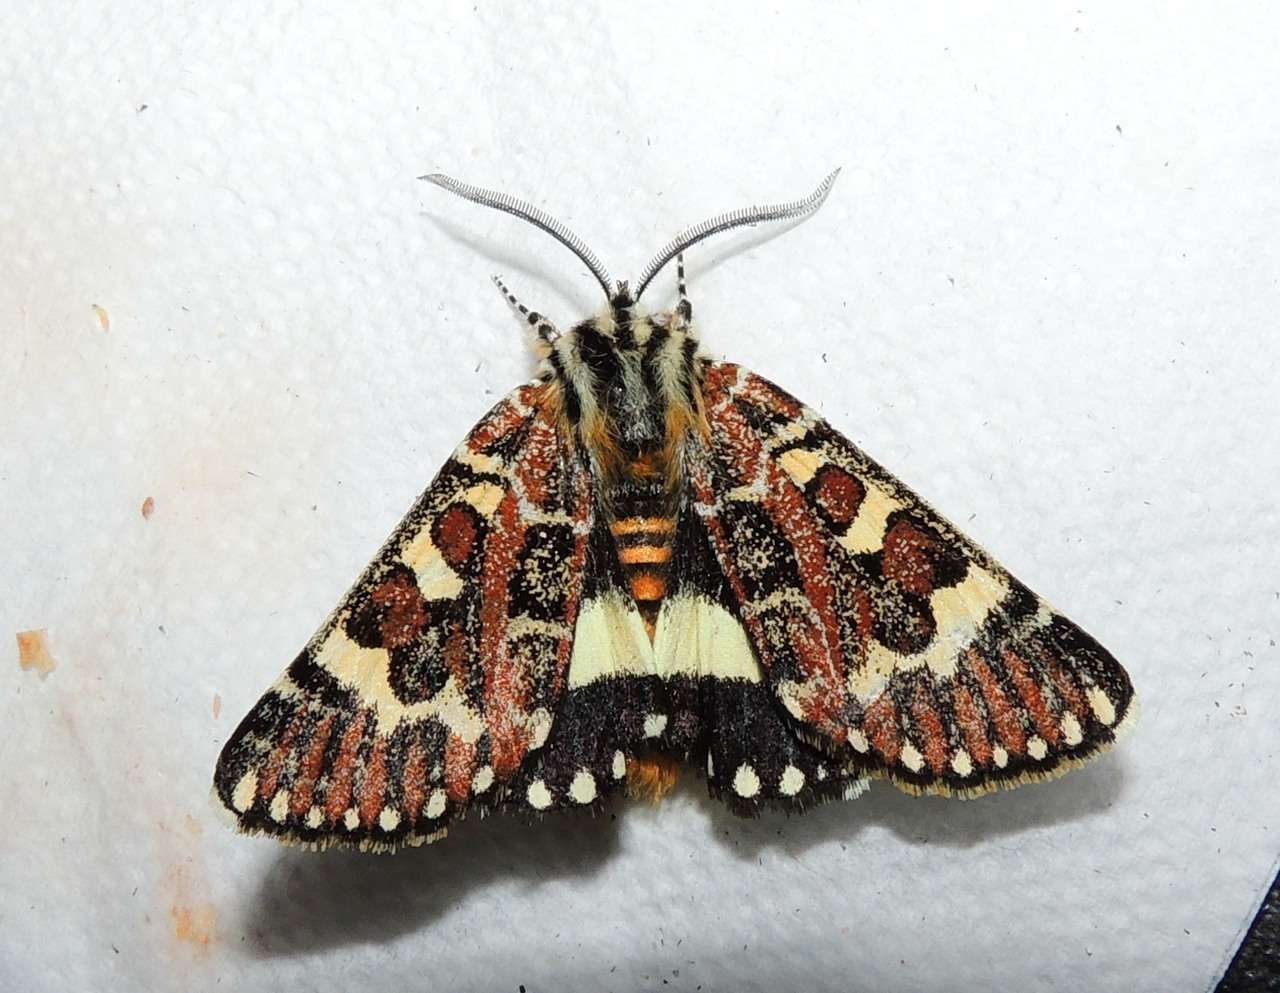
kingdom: Animalia
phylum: Arthropoda
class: Insecta
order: Lepidoptera
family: Noctuidae
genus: Apina
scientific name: Apina callisto
